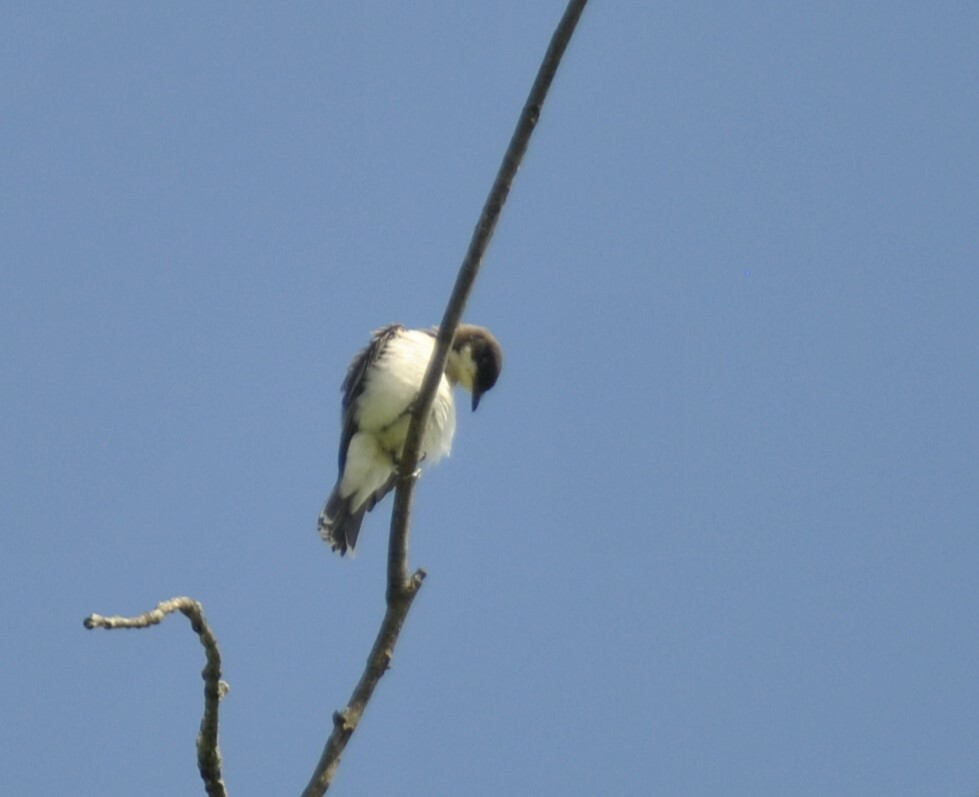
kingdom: Animalia
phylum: Chordata
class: Aves
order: Passeriformes
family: Tyrannidae
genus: Tyrannus
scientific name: Tyrannus tyrannus
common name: Eastern kingbird
